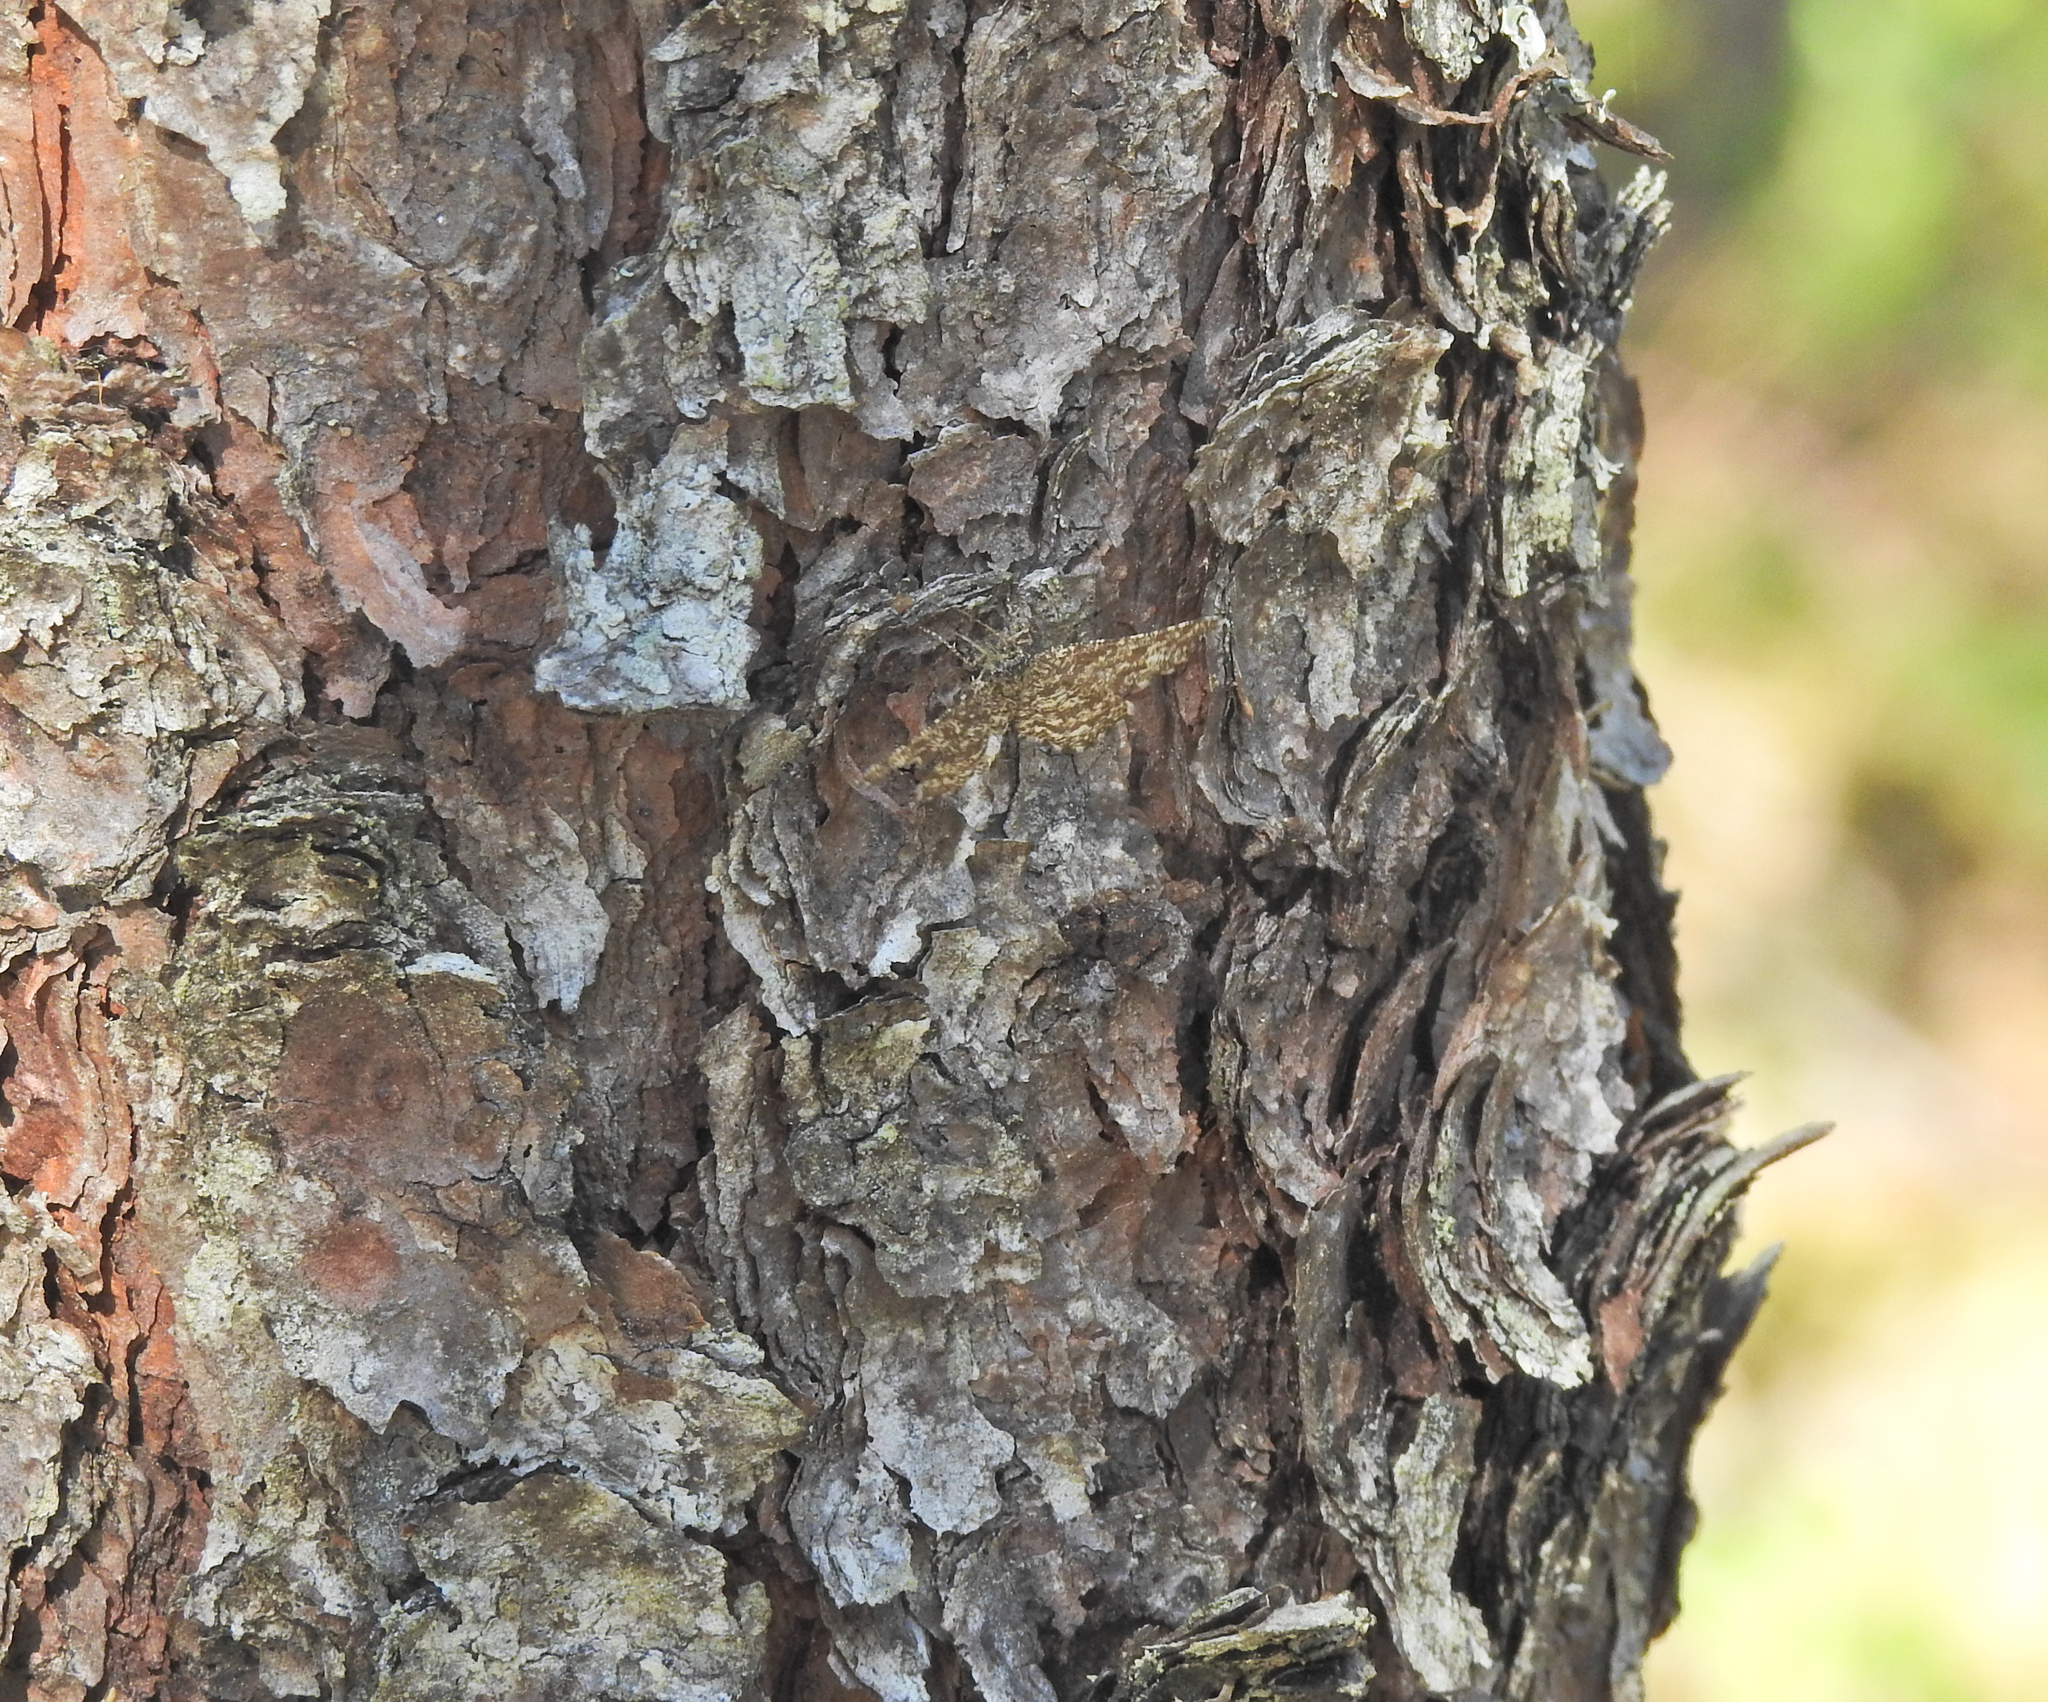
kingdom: Animalia
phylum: Arthropoda
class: Insecta
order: Lepidoptera
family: Geometridae
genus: Ematurga
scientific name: Ematurga atomaria
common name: Common heath
